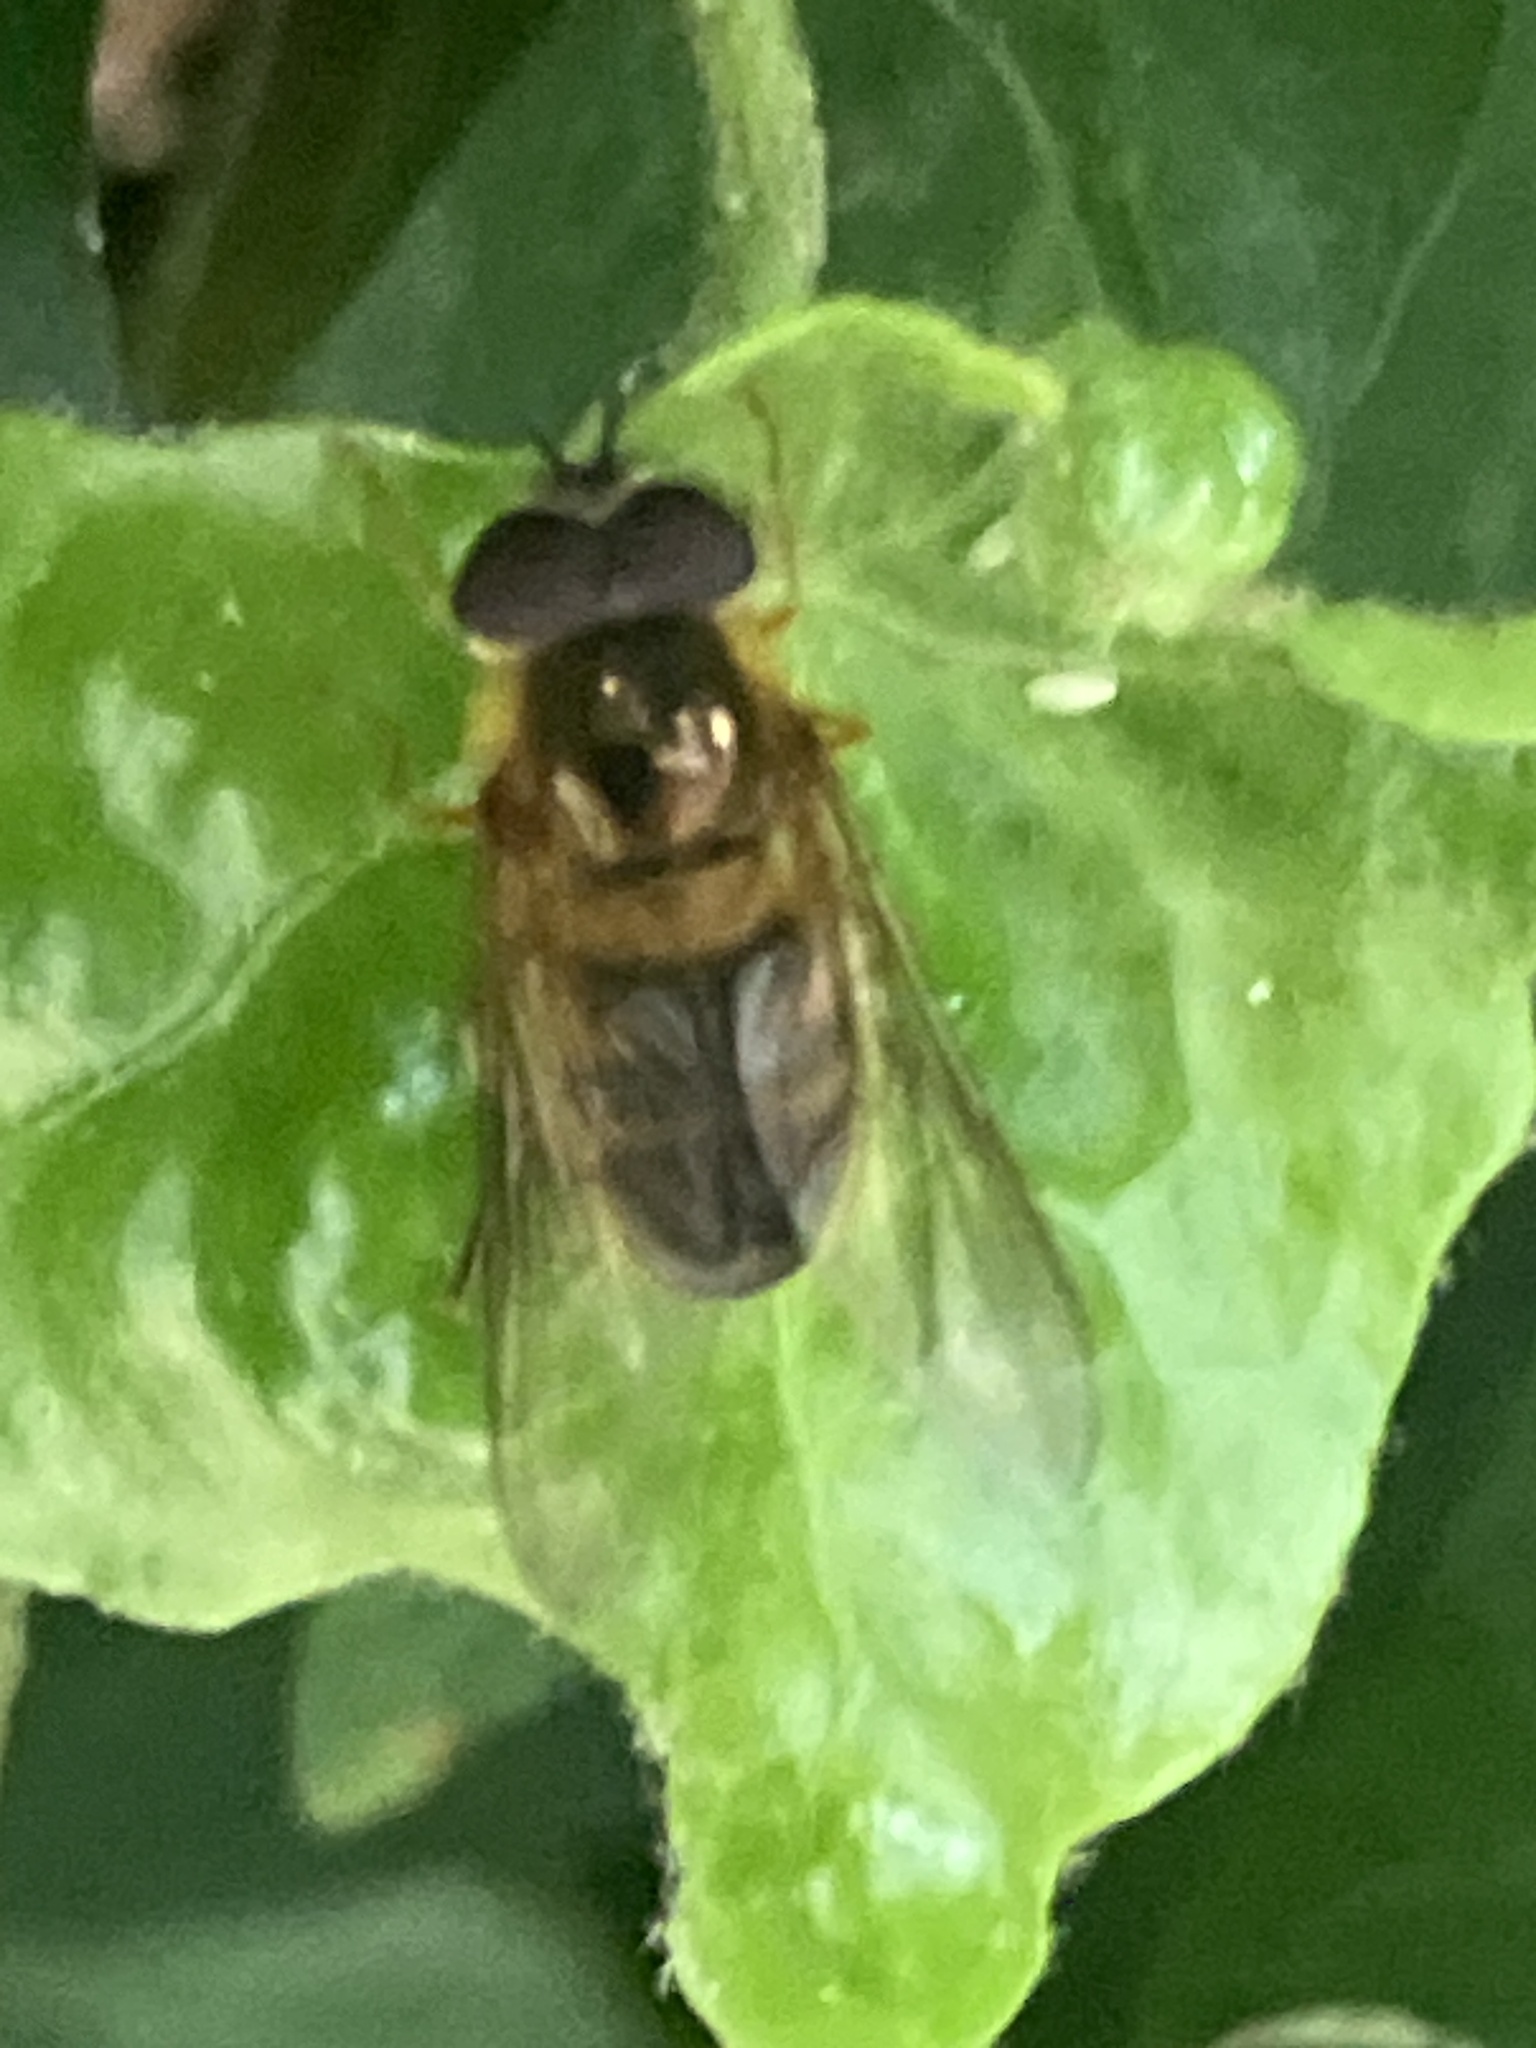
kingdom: Animalia
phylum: Arthropoda
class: Insecta
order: Diptera
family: Syrphidae
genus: Epistrophe
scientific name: Epistrophe eligans
